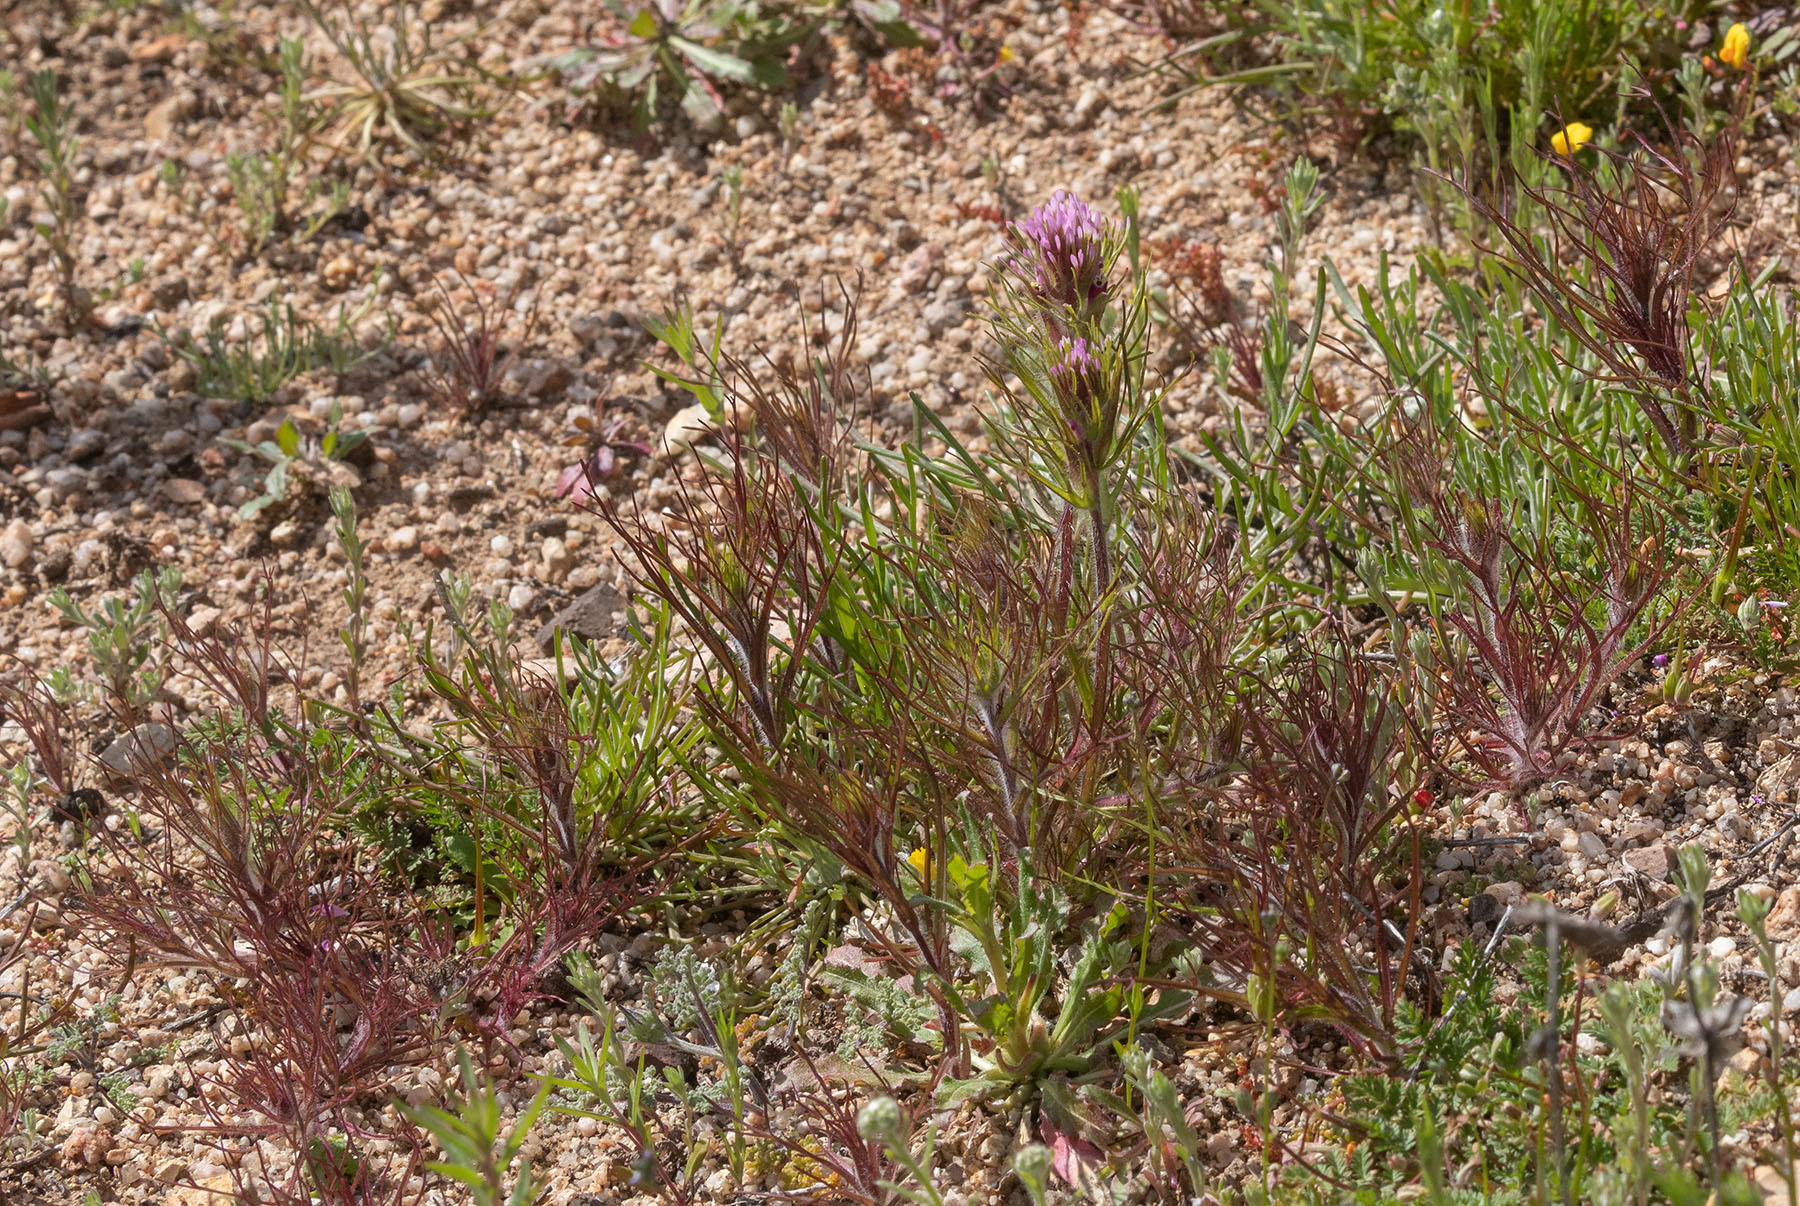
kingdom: Plantae
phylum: Tracheophyta
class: Magnoliopsida
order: Lamiales
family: Orobanchaceae
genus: Castilleja
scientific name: Castilleja exserta
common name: Purple owl-clover
